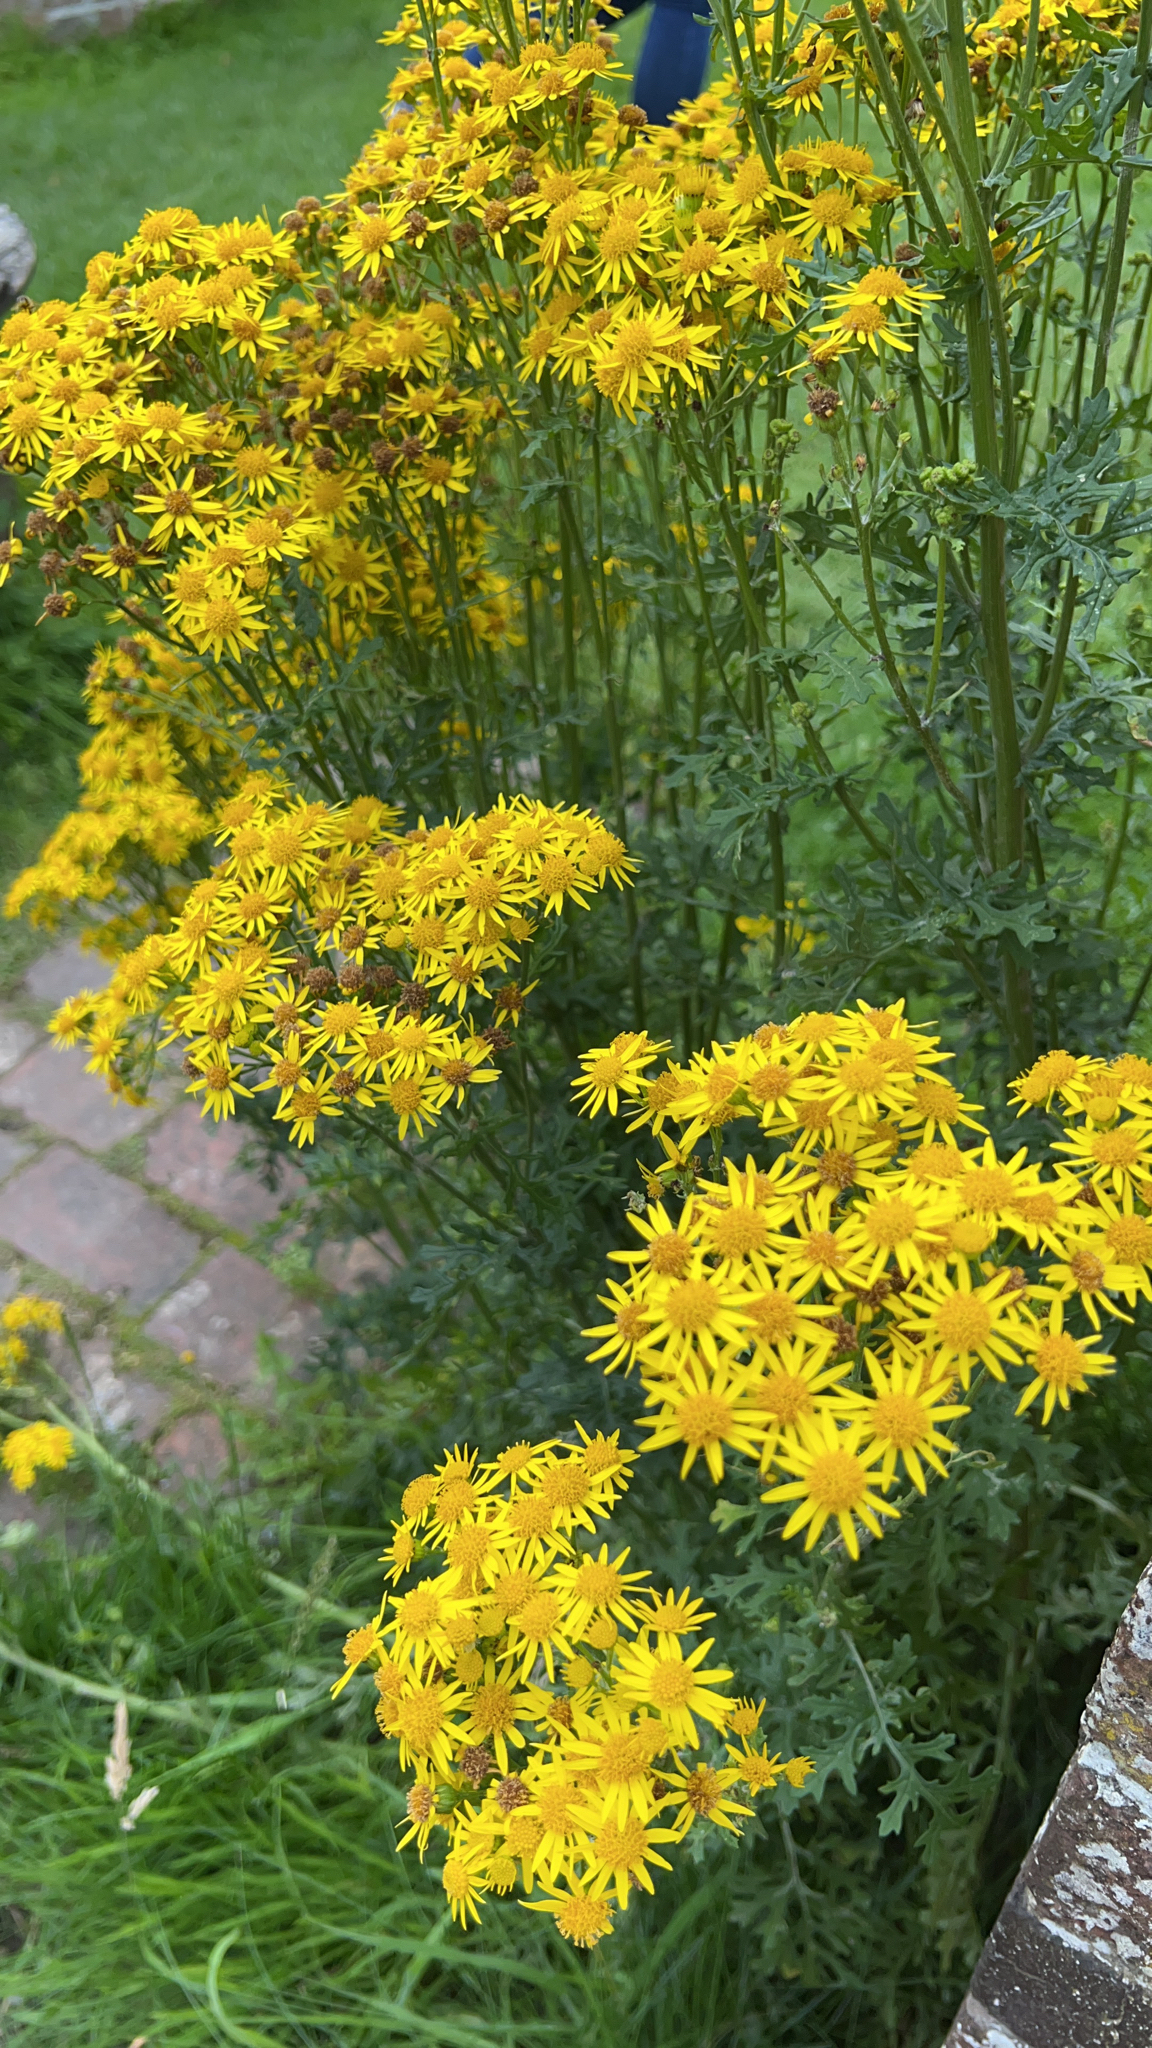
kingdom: Plantae
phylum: Tracheophyta
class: Magnoliopsida
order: Asterales
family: Asteraceae
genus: Jacobaea
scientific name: Jacobaea vulgaris
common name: Stinking willie
